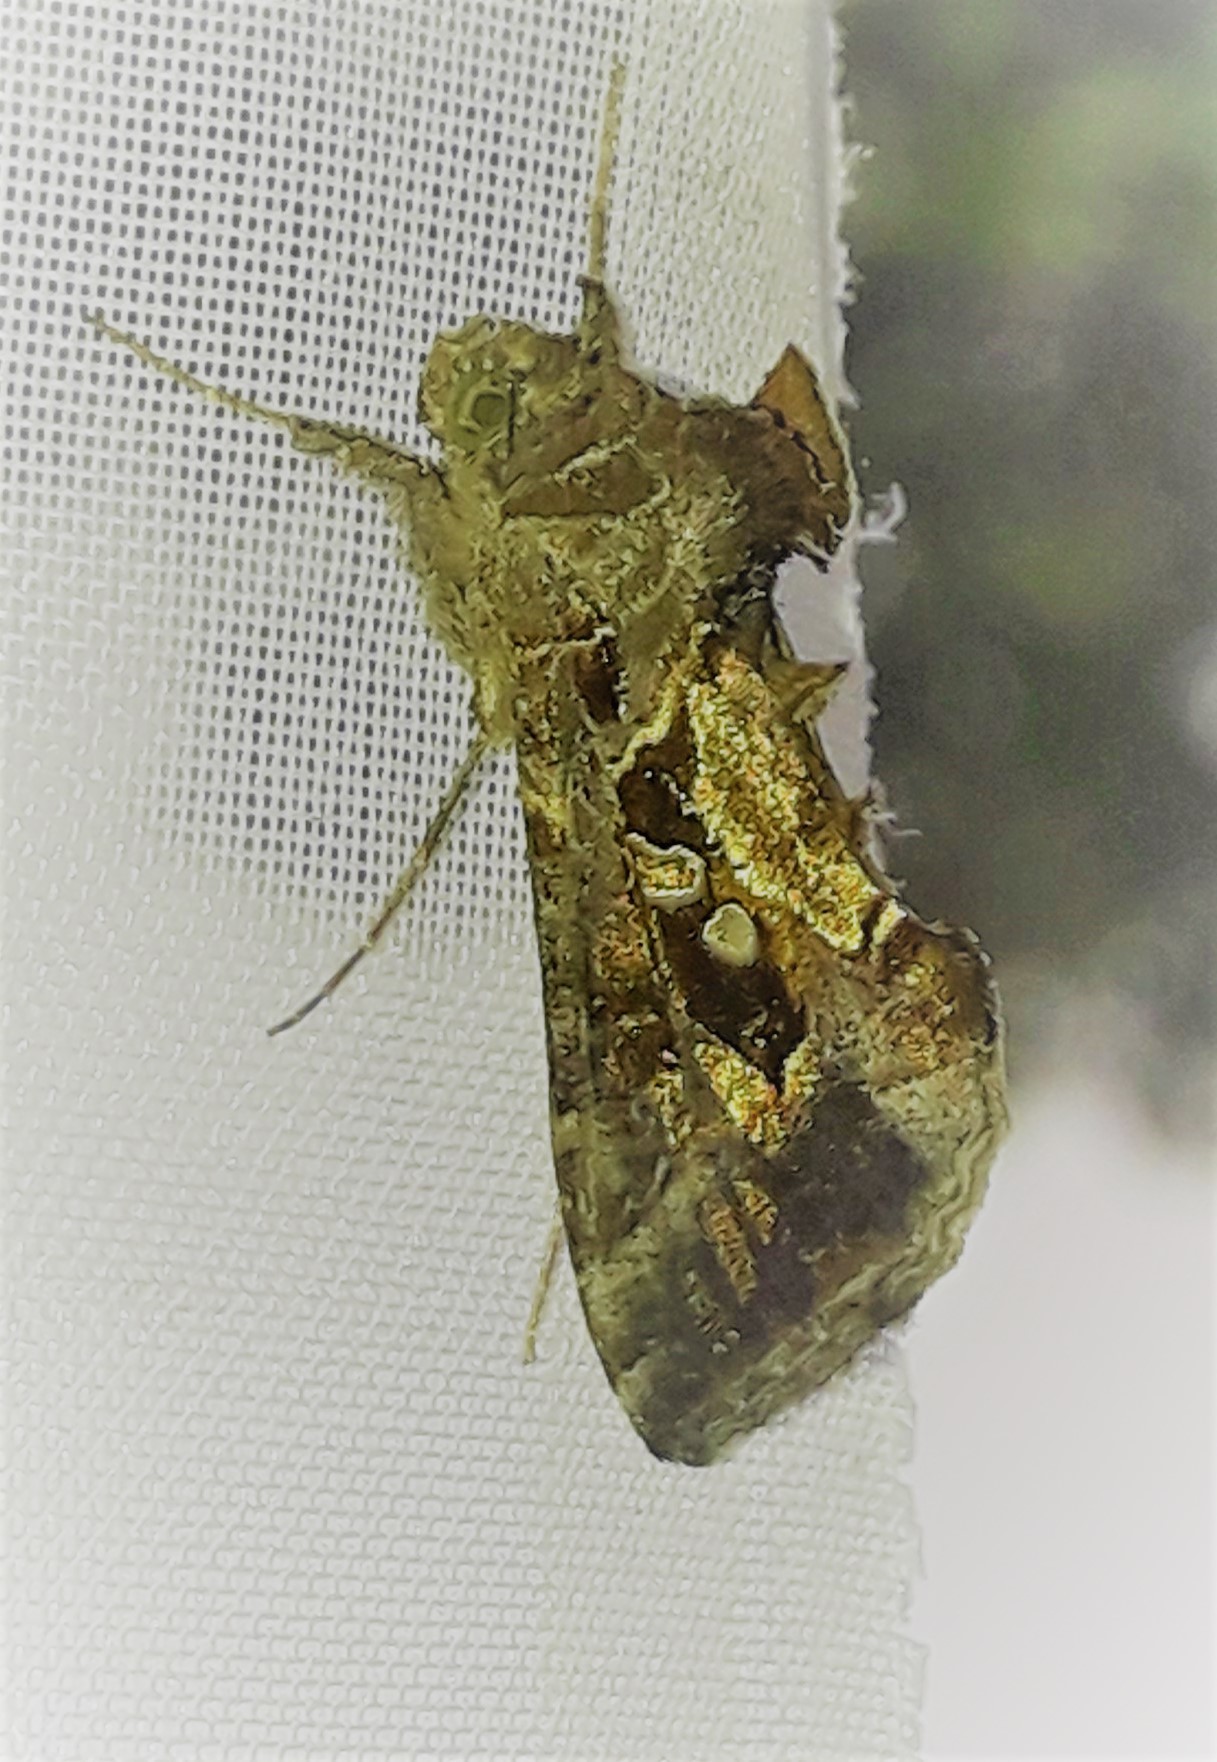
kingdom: Animalia
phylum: Arthropoda
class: Insecta
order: Lepidoptera
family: Noctuidae
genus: Chrysodeixis
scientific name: Chrysodeixis includens
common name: Cutworm moth
